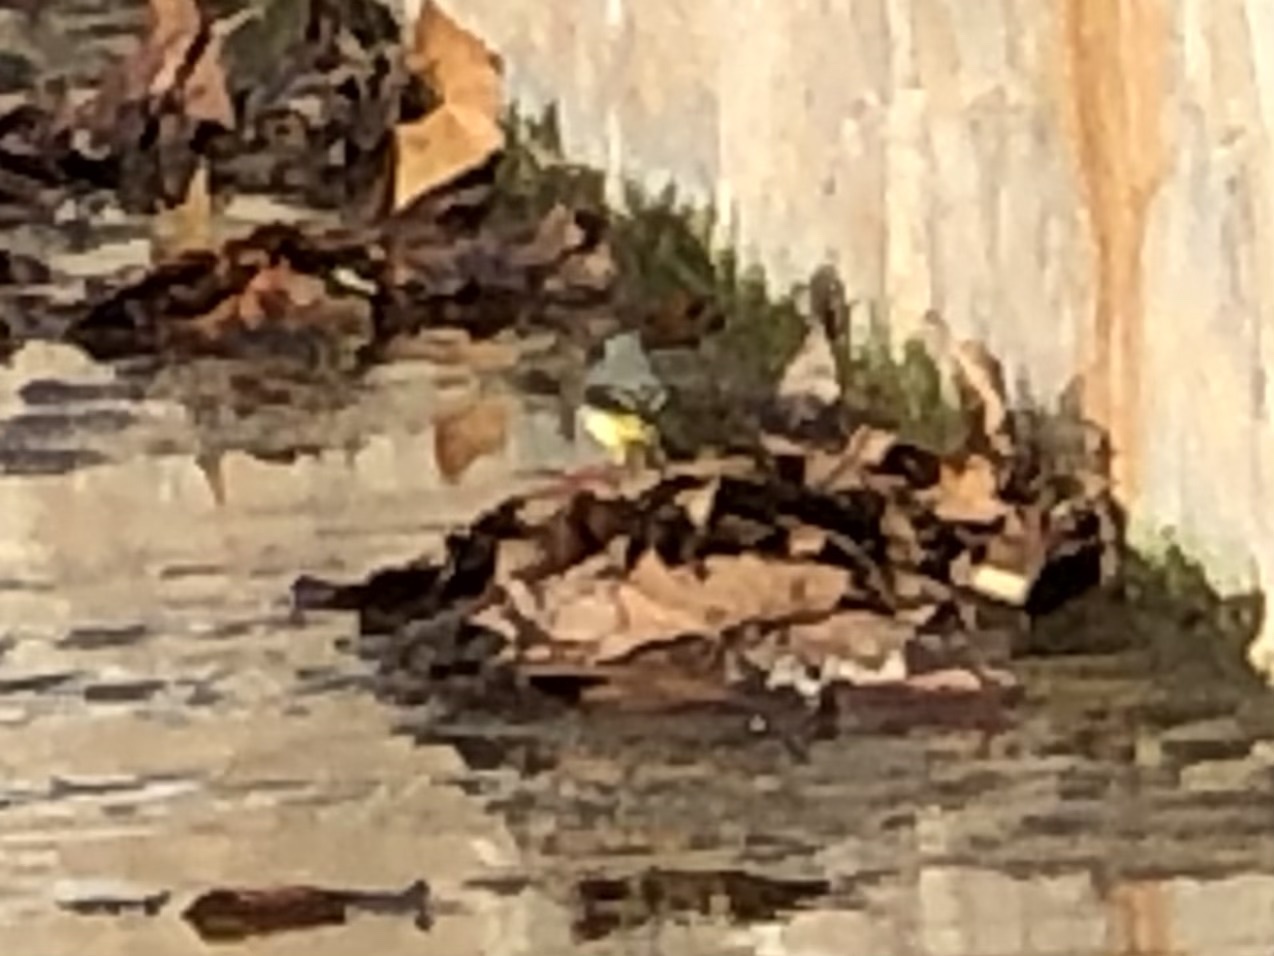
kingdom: Animalia
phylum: Chordata
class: Aves
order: Passeriformes
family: Motacillidae
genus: Motacilla
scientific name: Motacilla cinerea
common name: Grey wagtail
